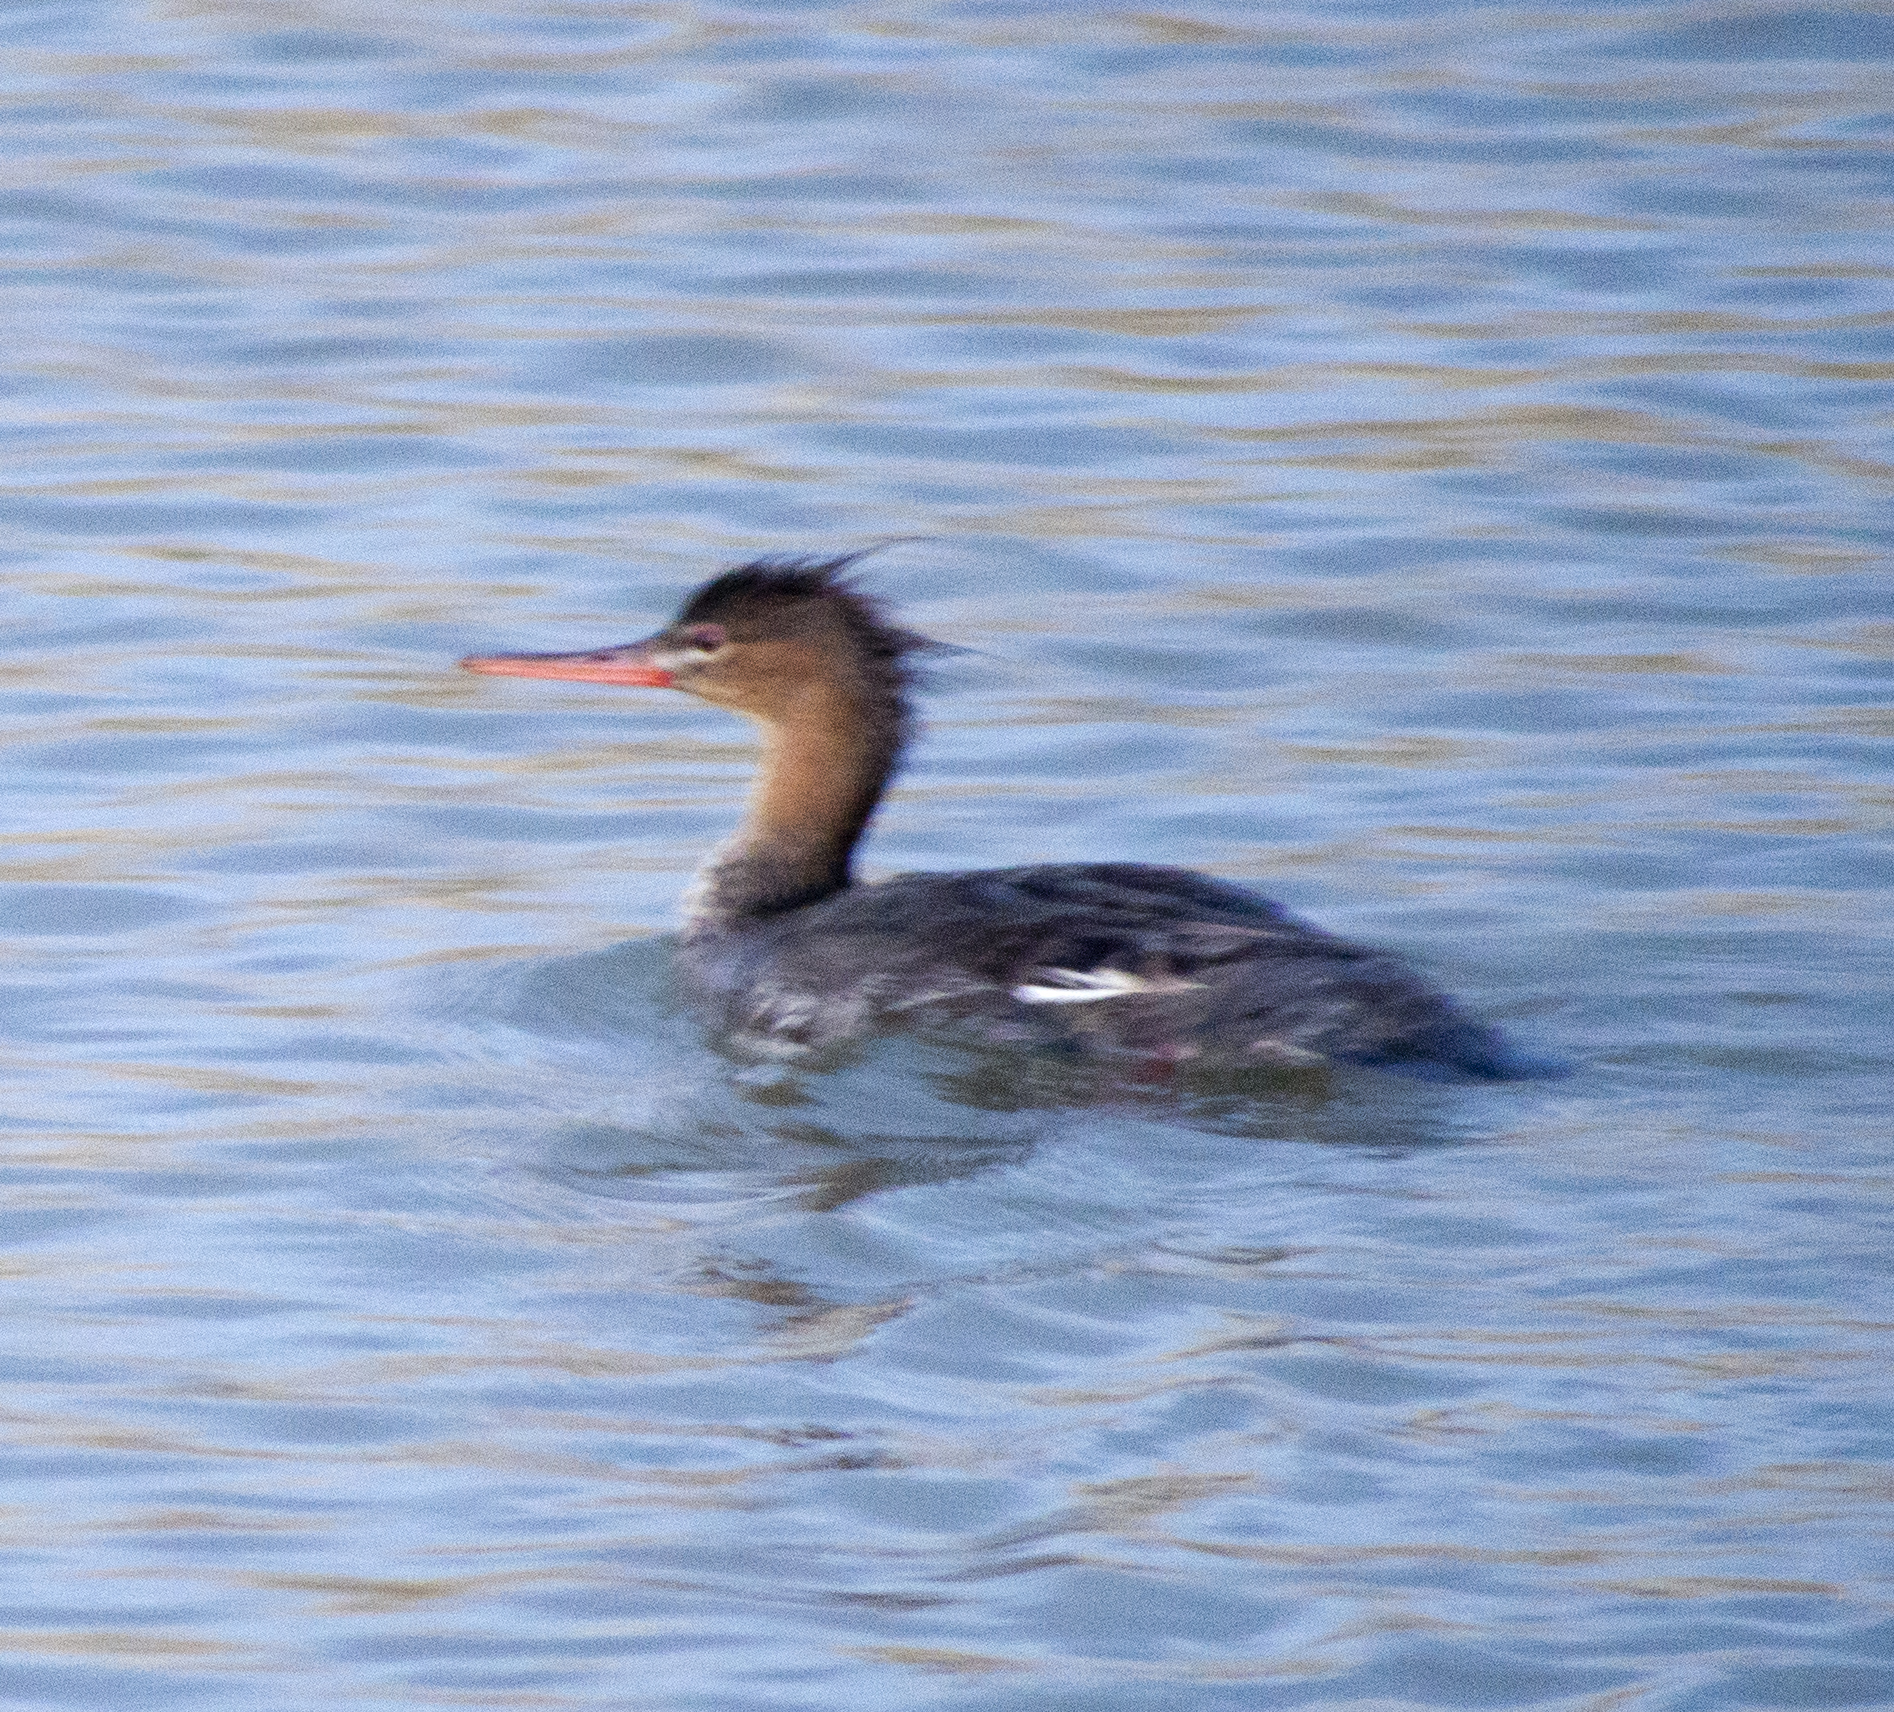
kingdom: Animalia
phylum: Chordata
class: Aves
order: Anseriformes
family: Anatidae
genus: Mergus
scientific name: Mergus serrator
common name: Red-breasted merganser
